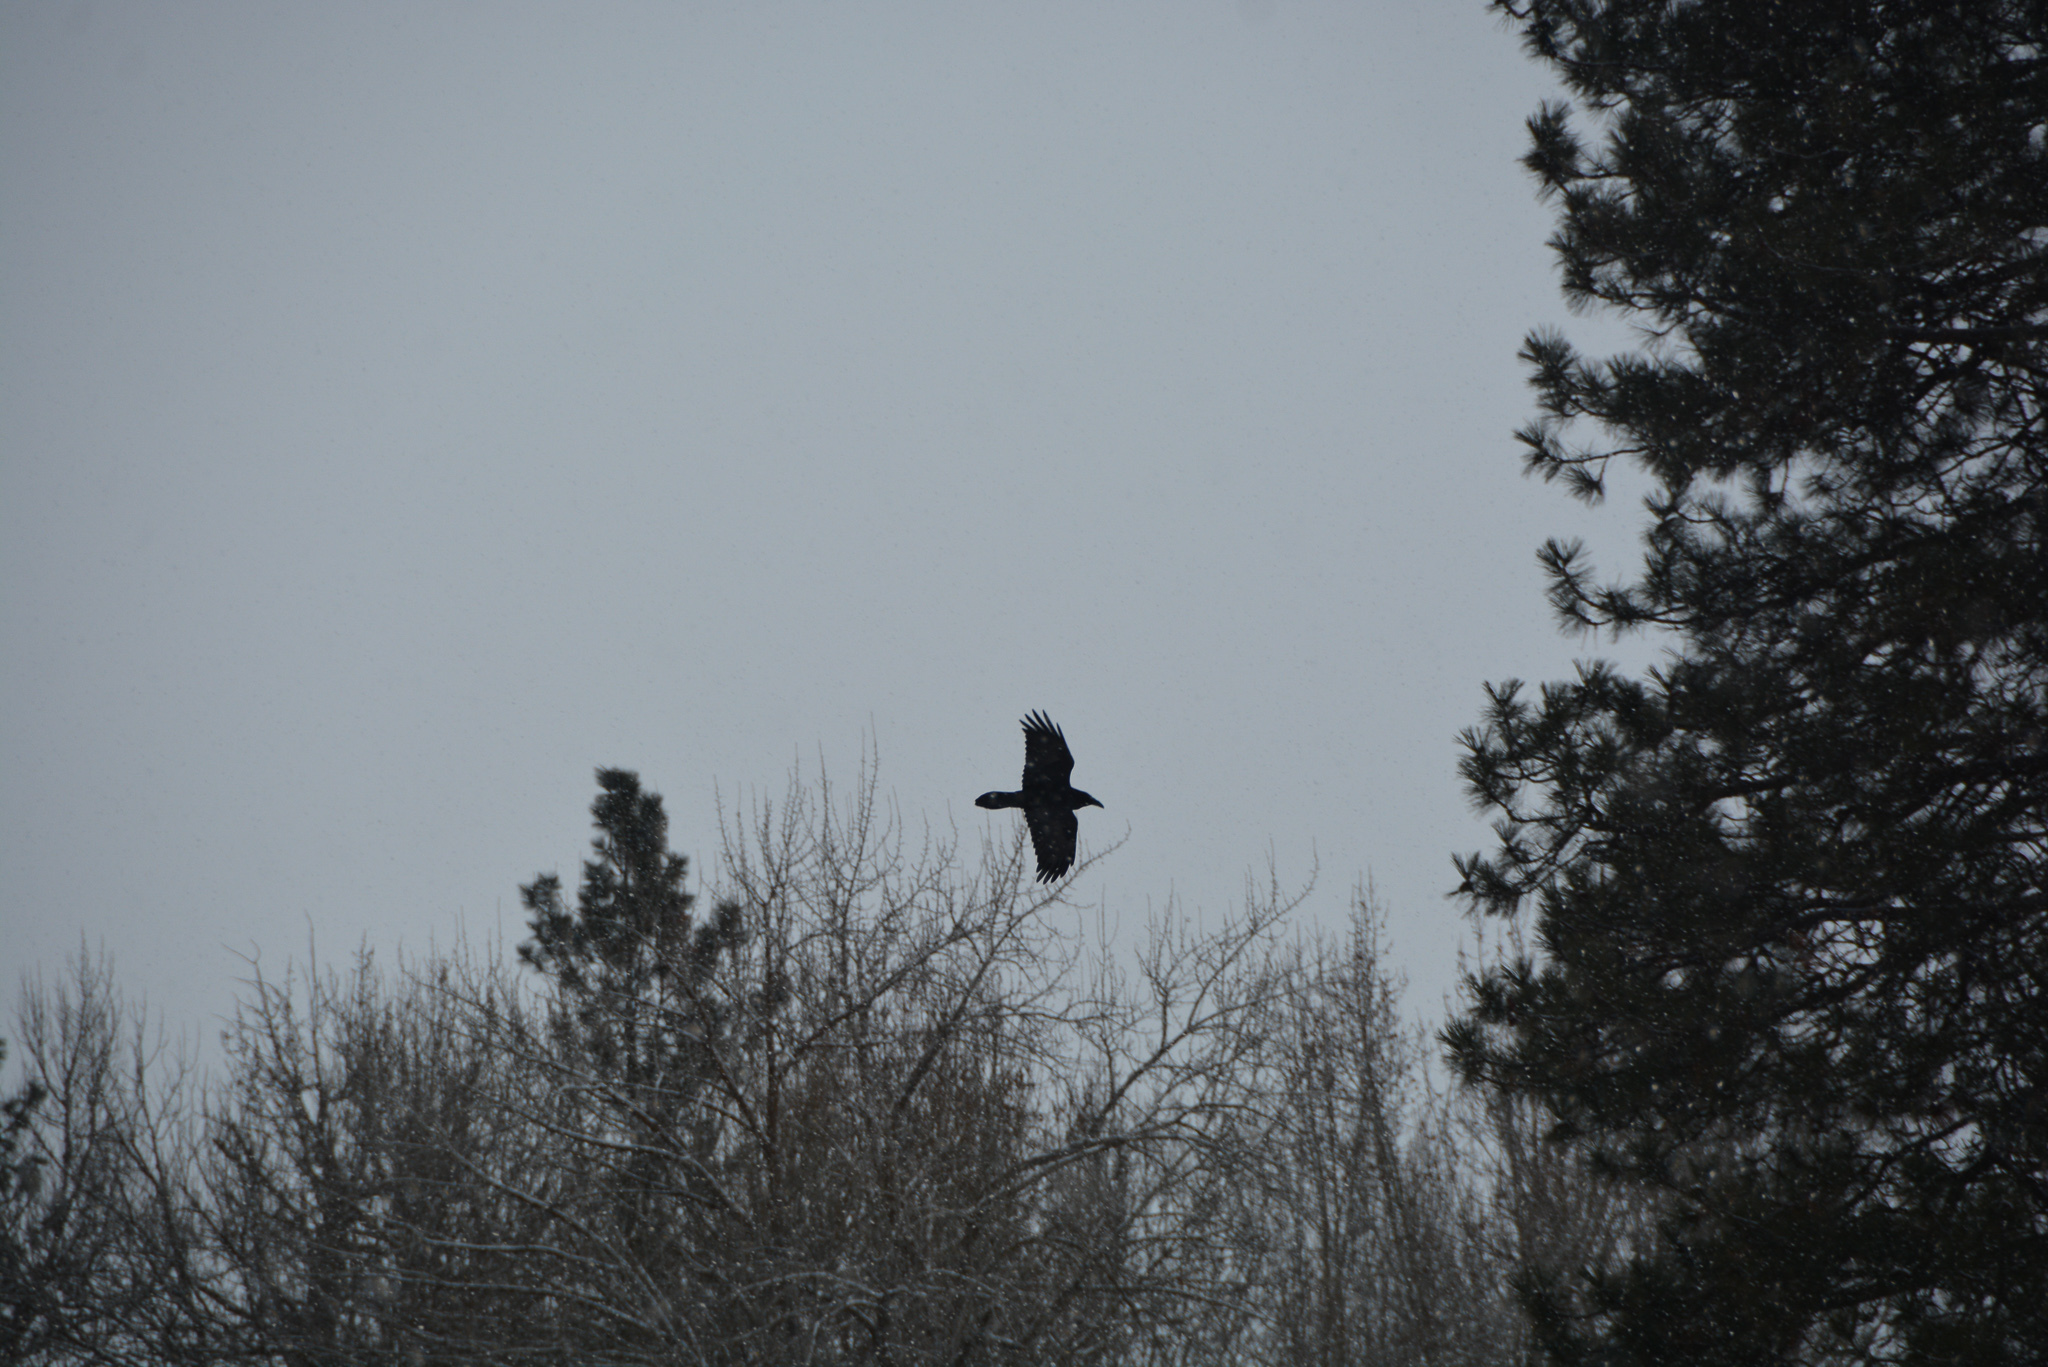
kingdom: Animalia
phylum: Chordata
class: Aves
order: Passeriformes
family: Corvidae
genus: Corvus
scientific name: Corvus corax
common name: Common raven
